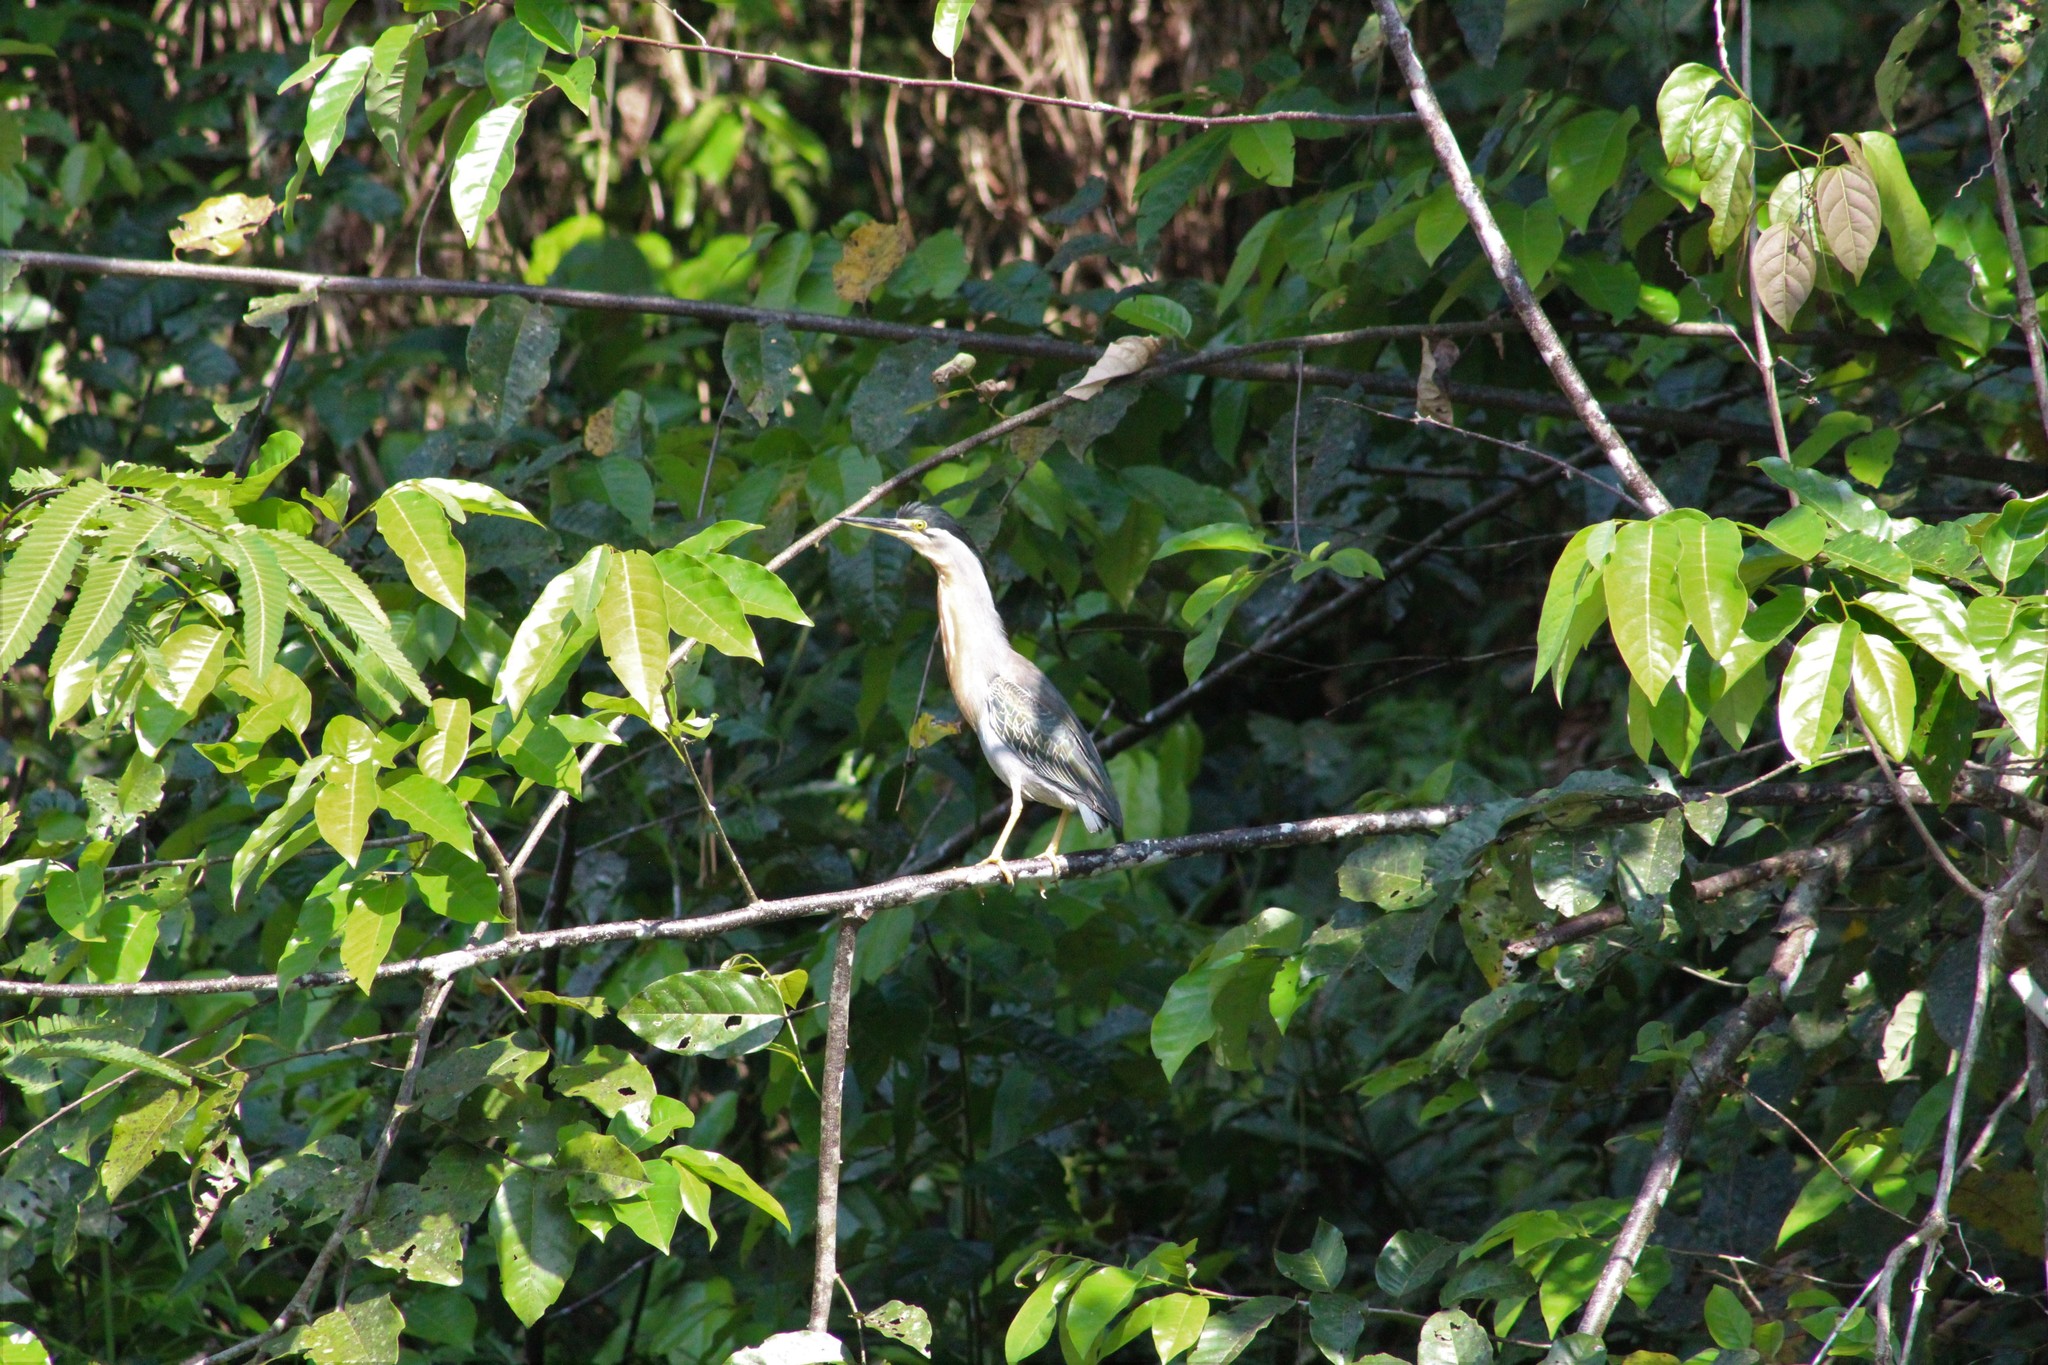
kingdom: Animalia
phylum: Chordata
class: Aves
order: Pelecaniformes
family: Ardeidae
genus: Butorides
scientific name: Butorides striata
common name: Striated heron
